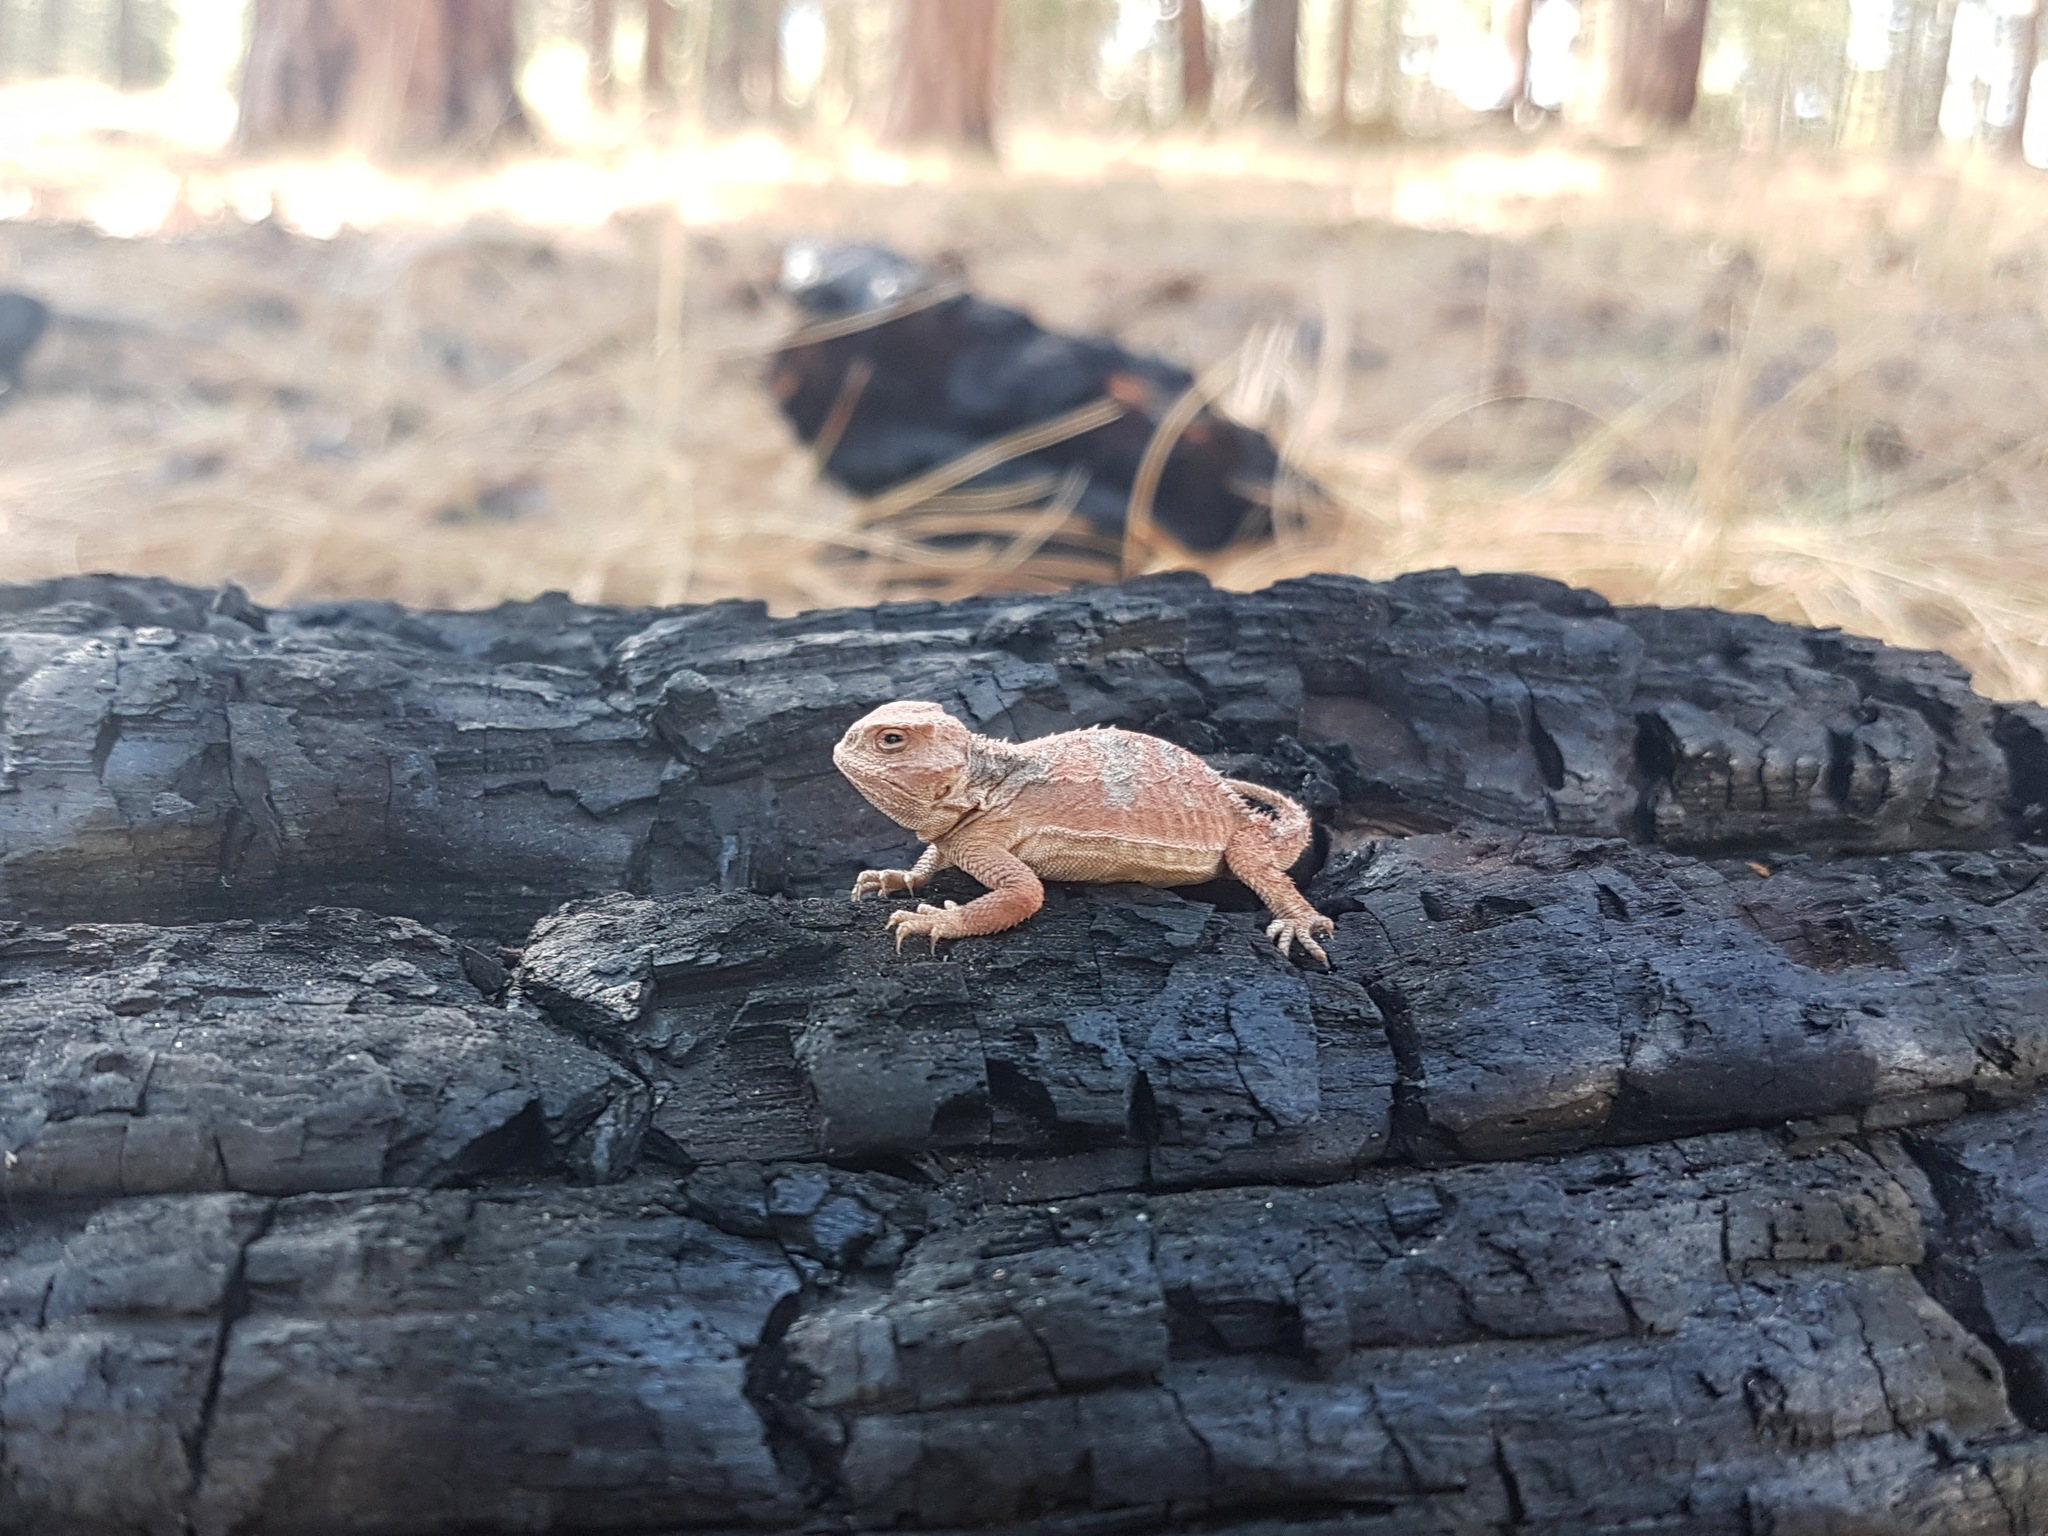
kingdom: Animalia
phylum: Chordata
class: Squamata
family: Phrynosomatidae
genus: Phrynosoma
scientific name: Phrynosoma hernandesi
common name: Greater short-horned lizard
